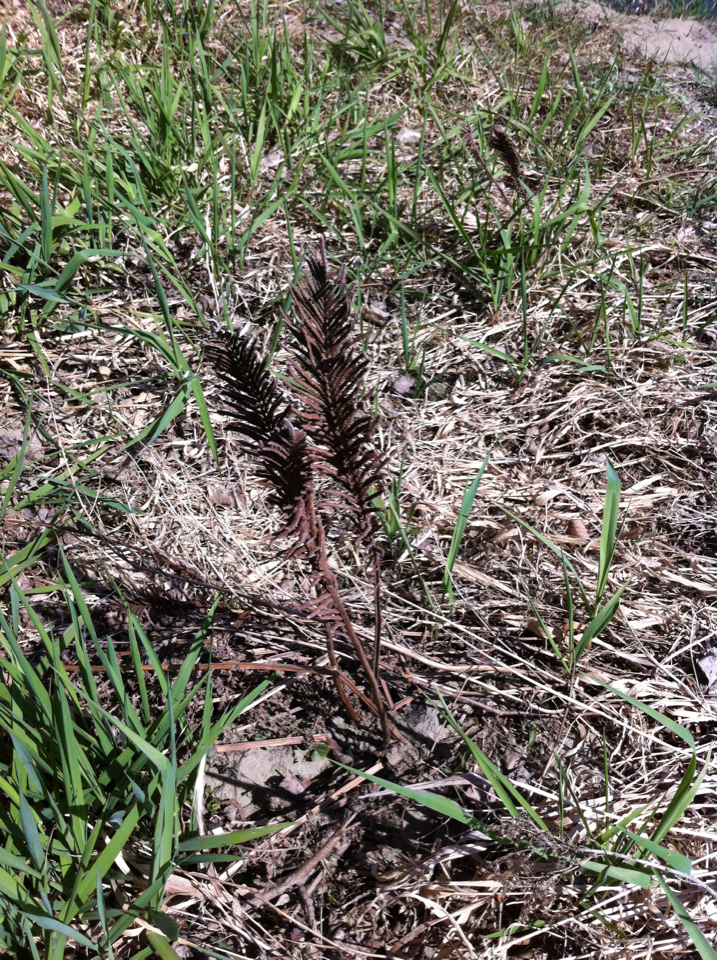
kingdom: Plantae
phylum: Tracheophyta
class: Polypodiopsida
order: Polypodiales
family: Onocleaceae
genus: Matteuccia
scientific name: Matteuccia struthiopteris
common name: Ostrich fern
